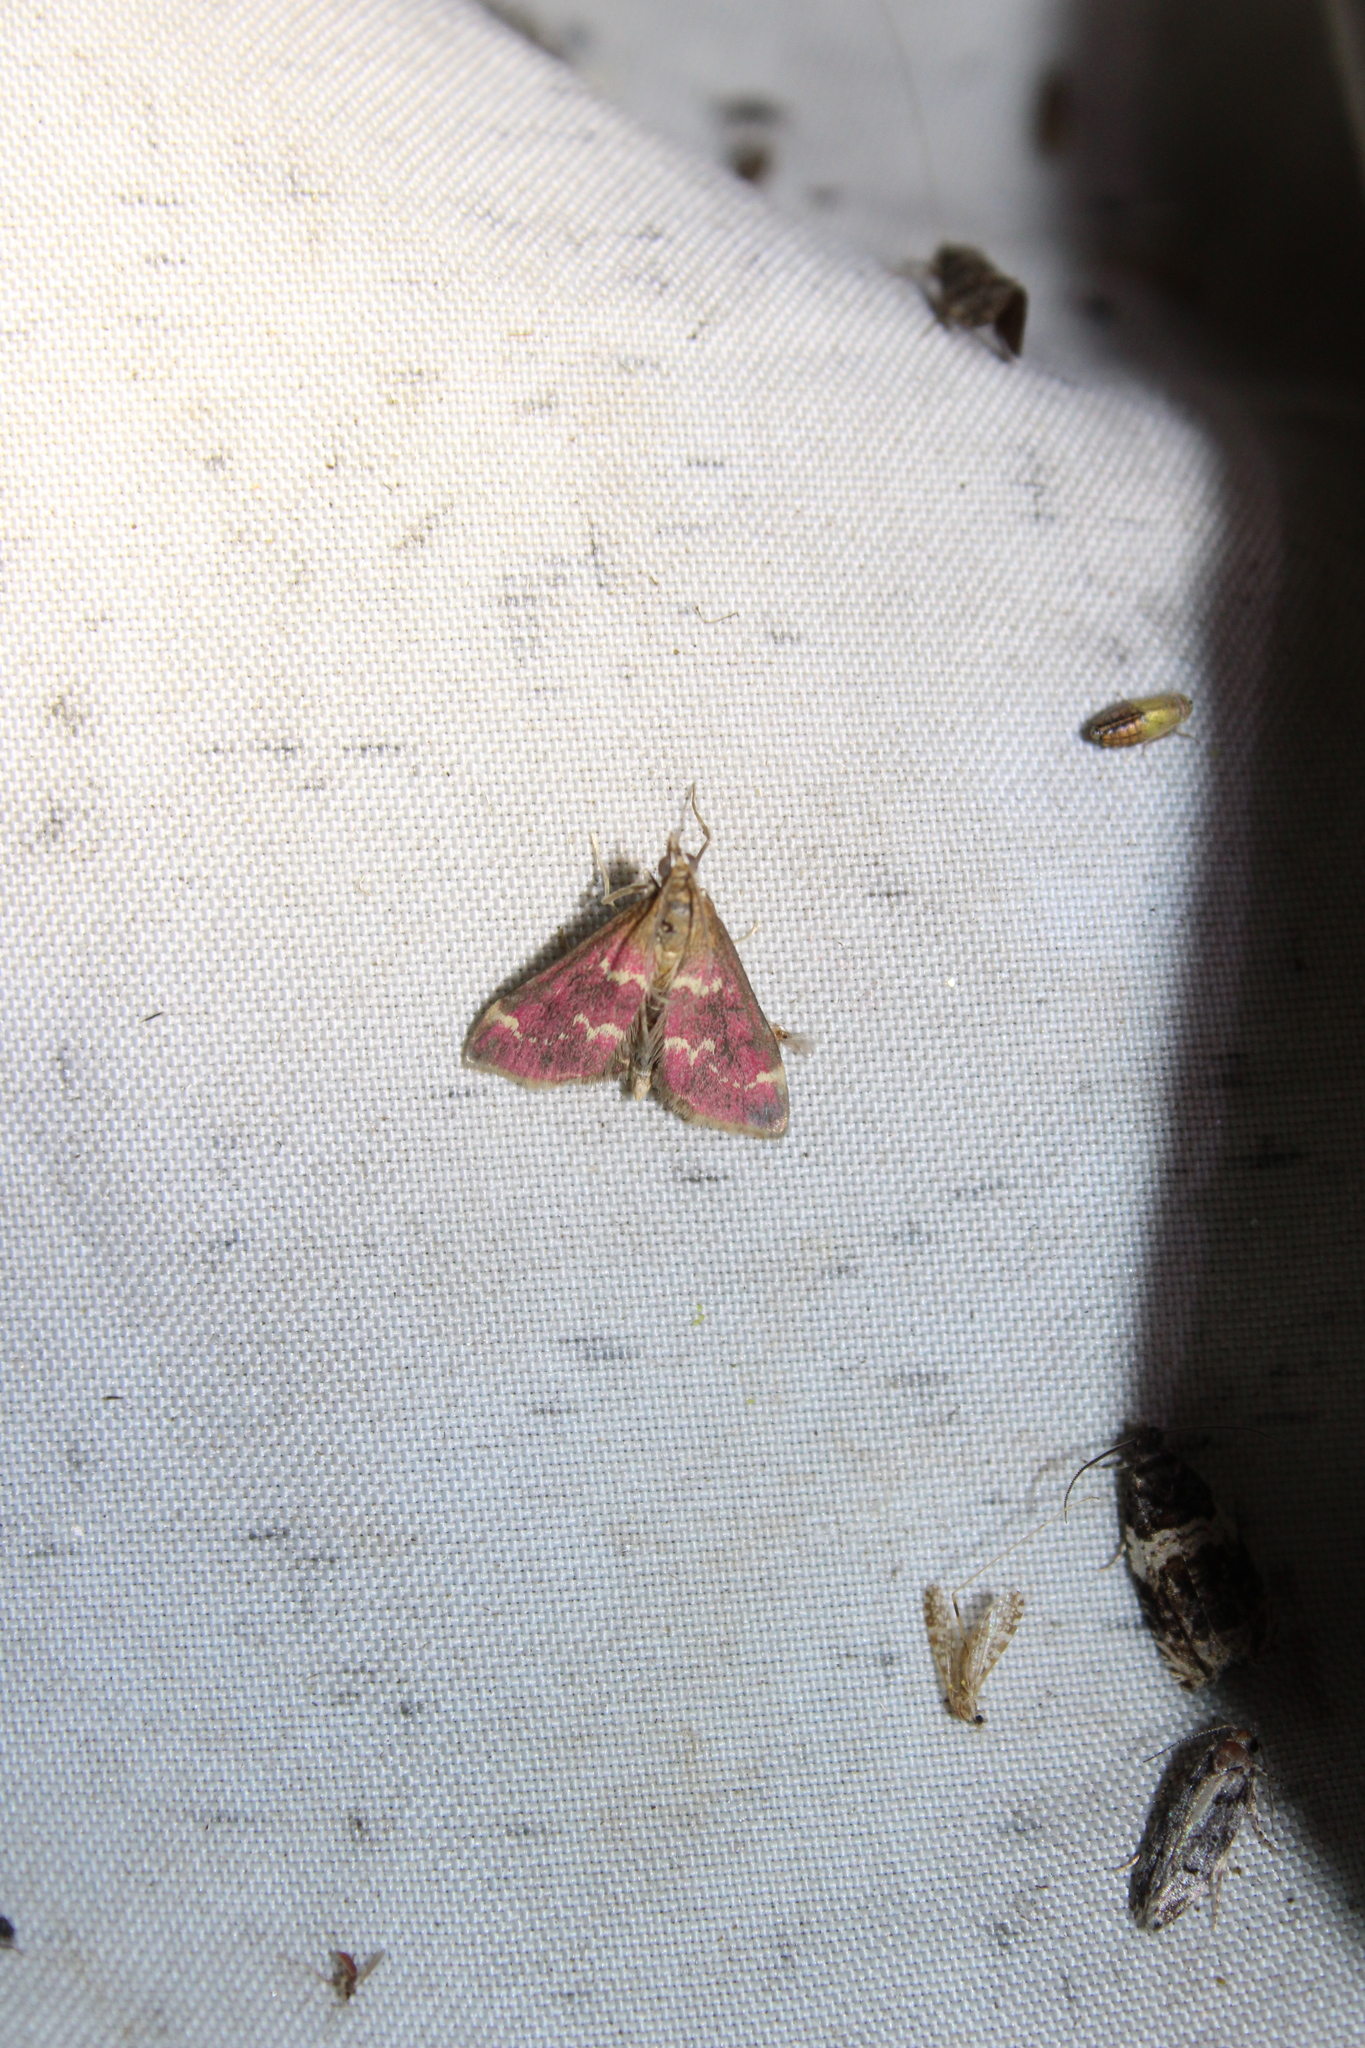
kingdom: Animalia
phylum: Arthropoda
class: Insecta
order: Lepidoptera
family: Crambidae
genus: Pyrausta
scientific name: Pyrausta signatalis
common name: Raspberry pyrausta moth
